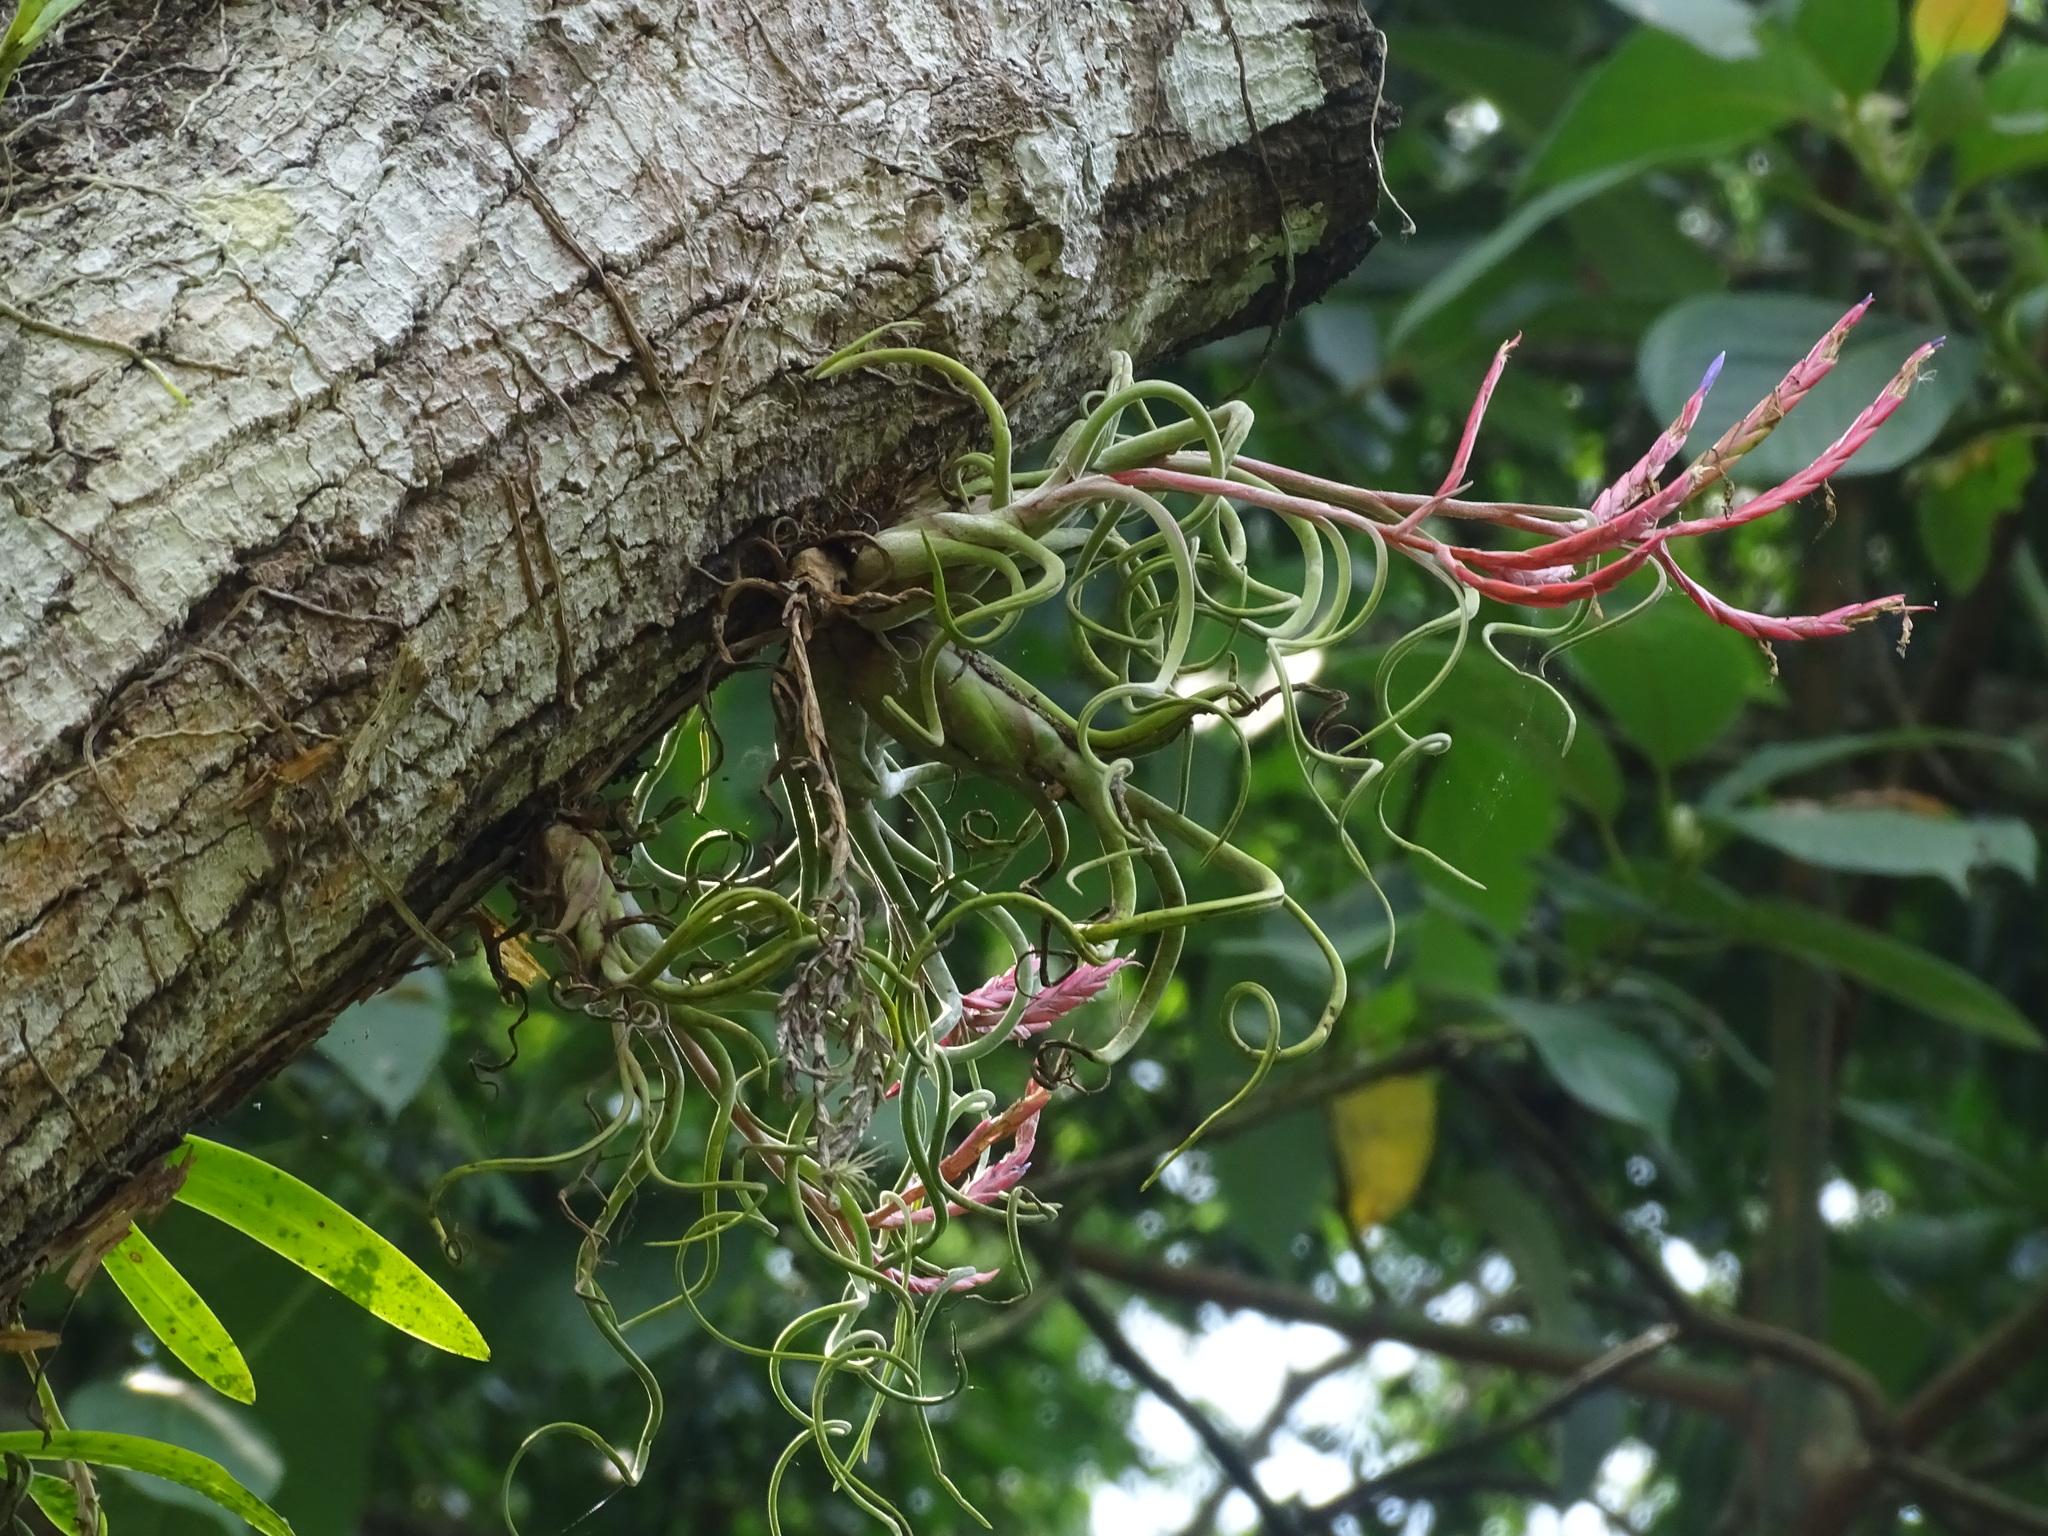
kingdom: Plantae
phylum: Tracheophyta
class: Liliopsida
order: Poales
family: Bromeliaceae
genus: Tillandsia
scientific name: Tillandsia caput-medusae
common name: Octopus plant
